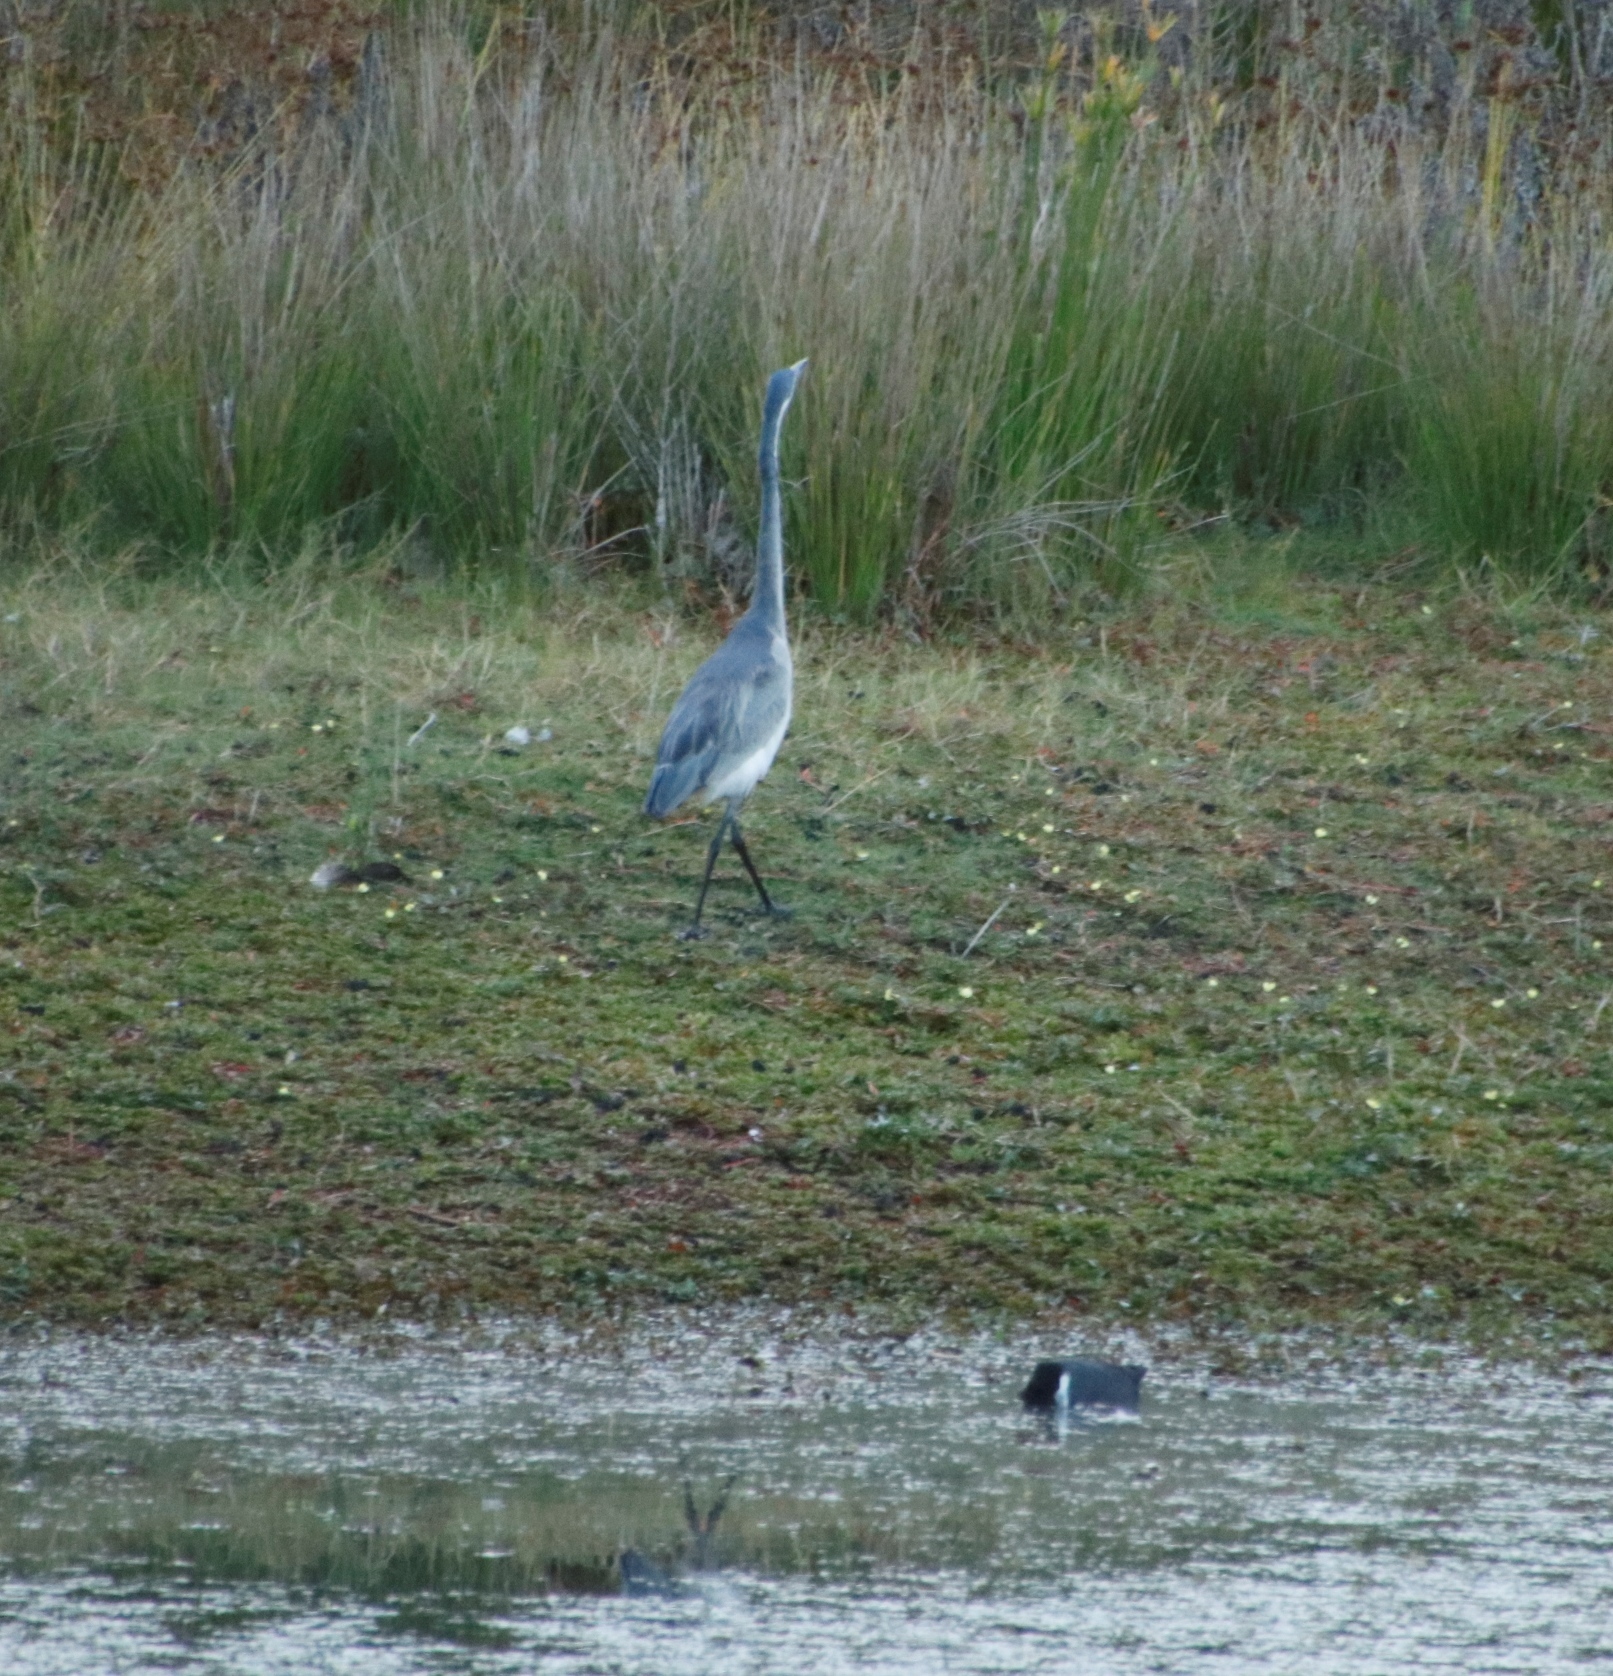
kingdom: Animalia
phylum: Chordata
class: Aves
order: Gruiformes
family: Rallidae
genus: Fulica
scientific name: Fulica cristata
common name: Red-knobbed coot
